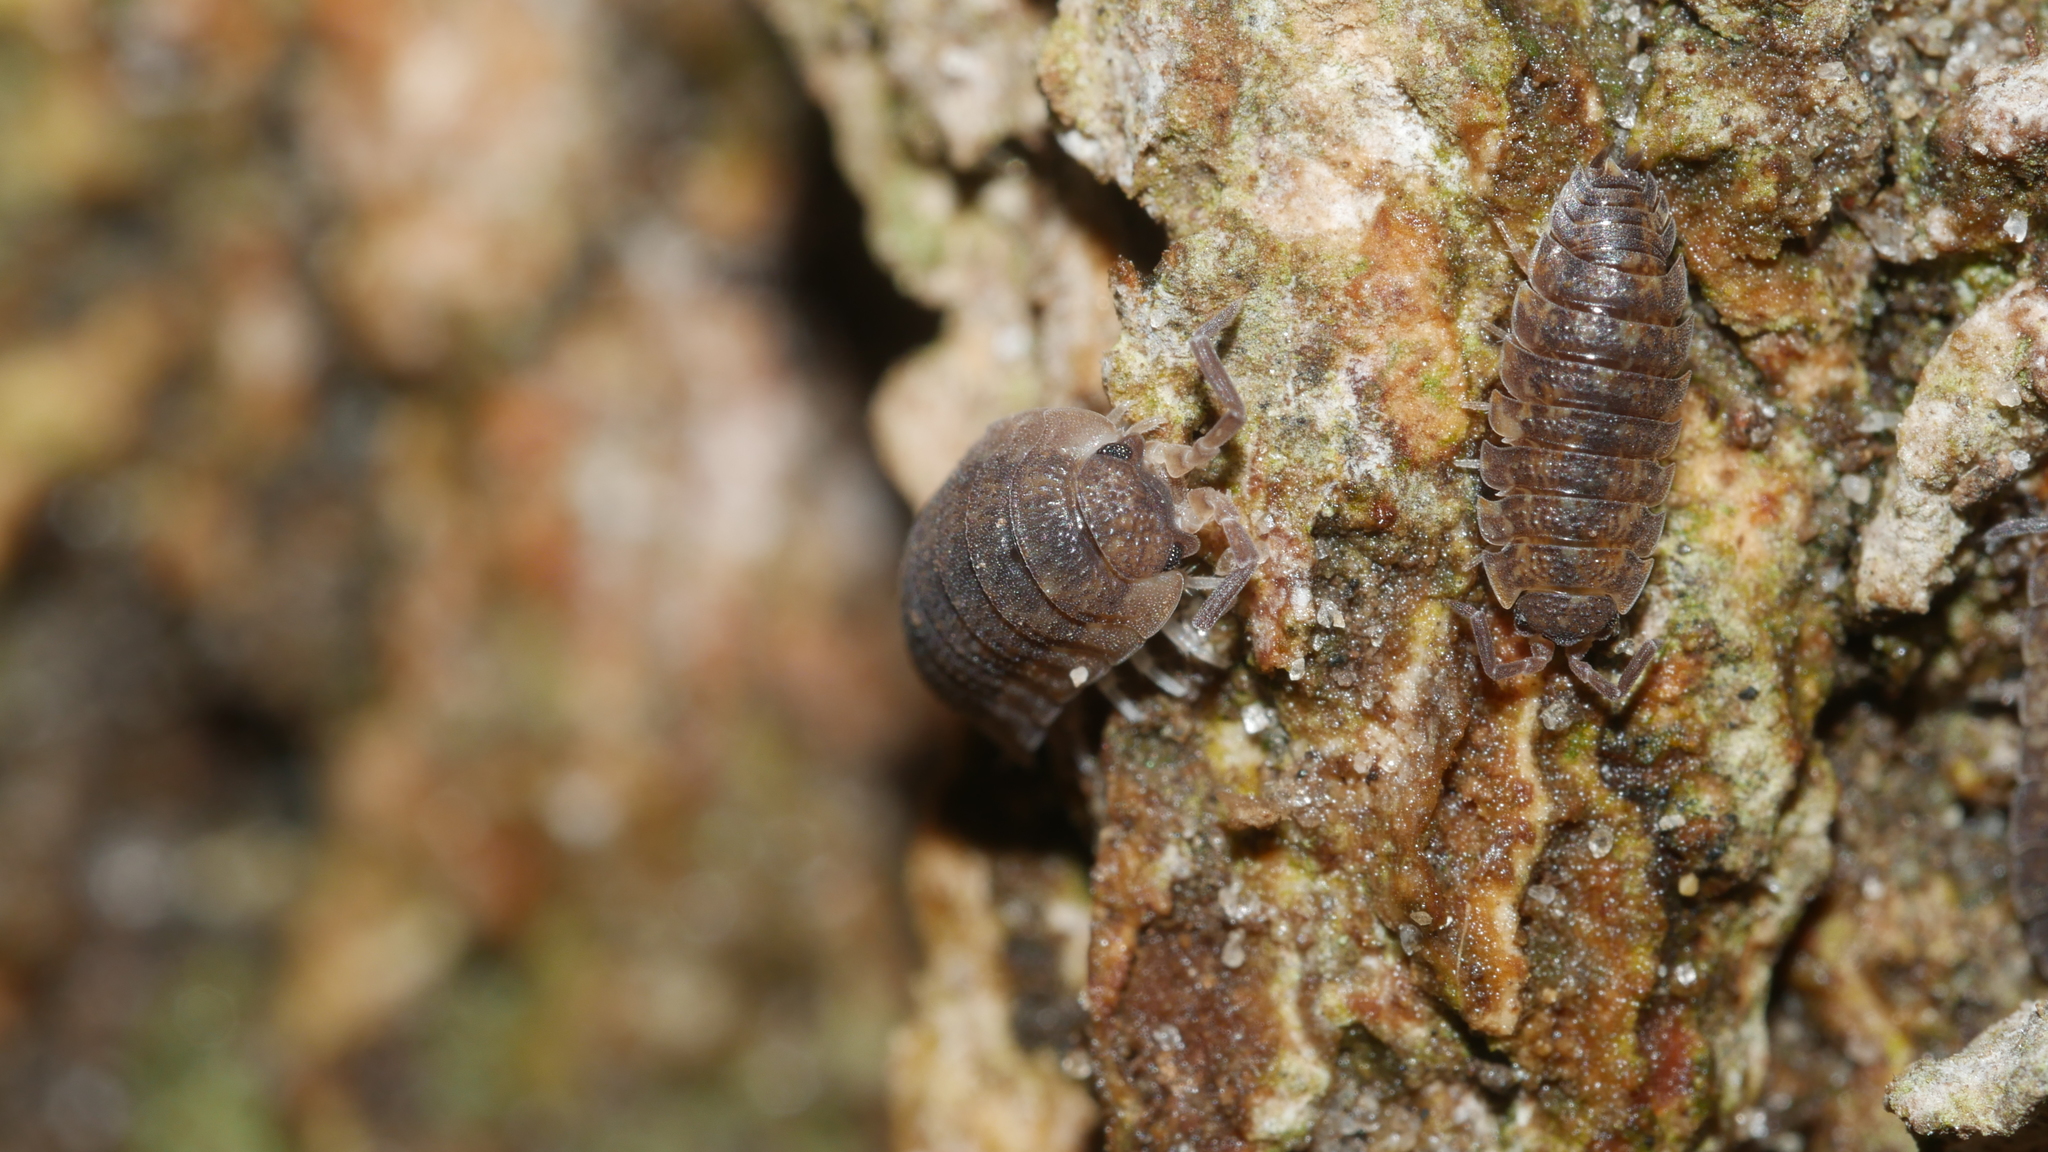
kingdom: Animalia
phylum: Arthropoda
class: Malacostraca
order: Isopoda
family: Porcellionidae
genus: Porcellio
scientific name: Porcellio scaber
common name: Common rough woodlouse
